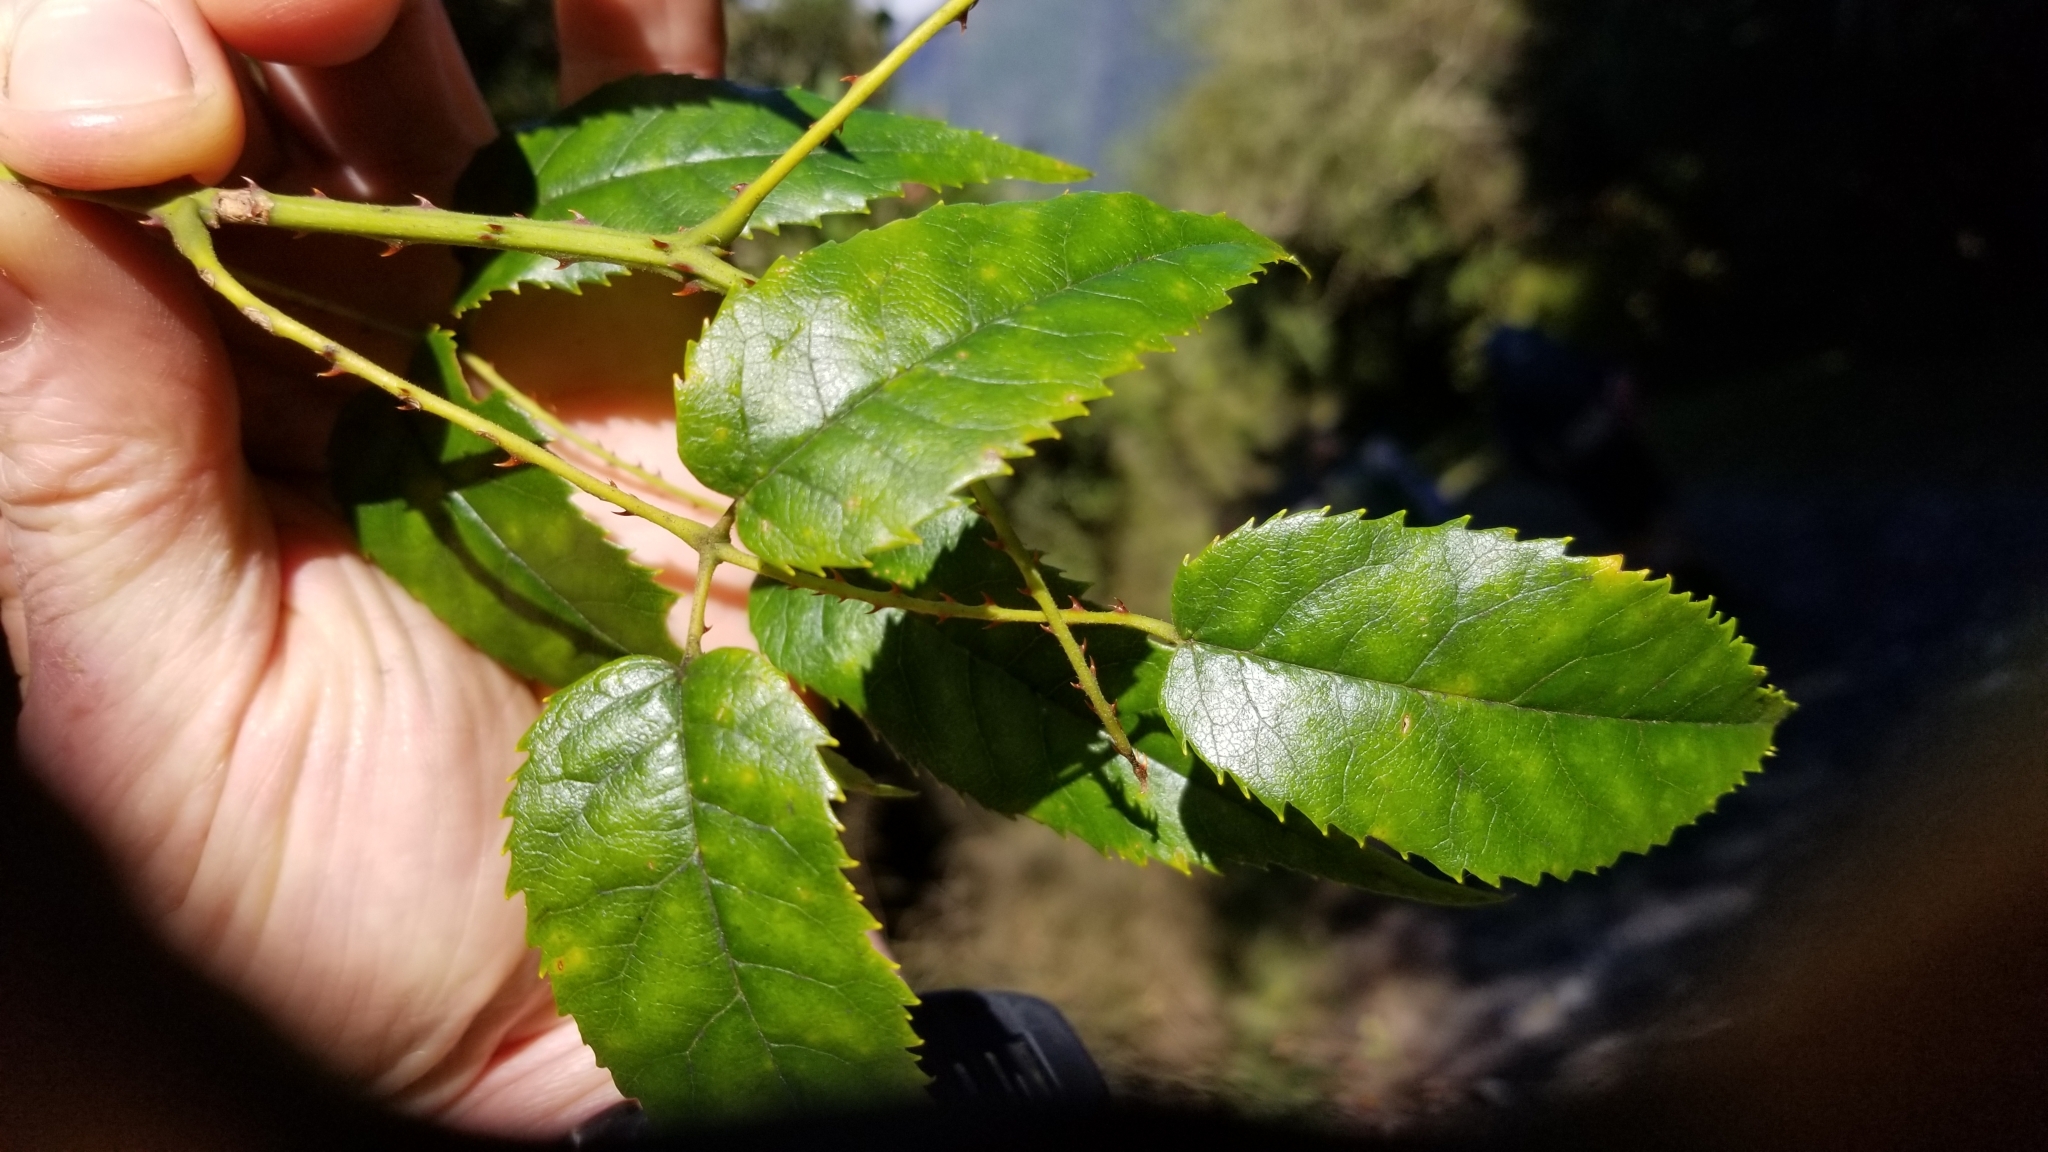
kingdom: Plantae
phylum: Tracheophyta
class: Magnoliopsida
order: Rosales
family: Rosaceae
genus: Rubus
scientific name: Rubus cissoides
